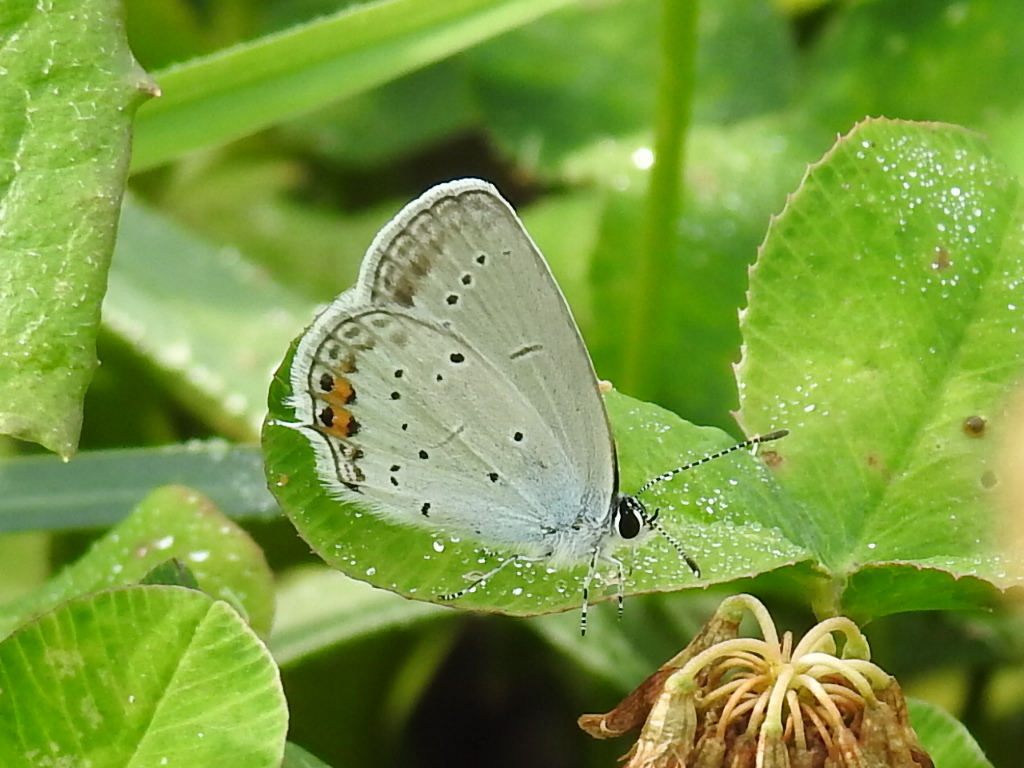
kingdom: Animalia
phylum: Arthropoda
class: Insecta
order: Lepidoptera
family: Lycaenidae
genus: Elkalyce
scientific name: Elkalyce argiades
